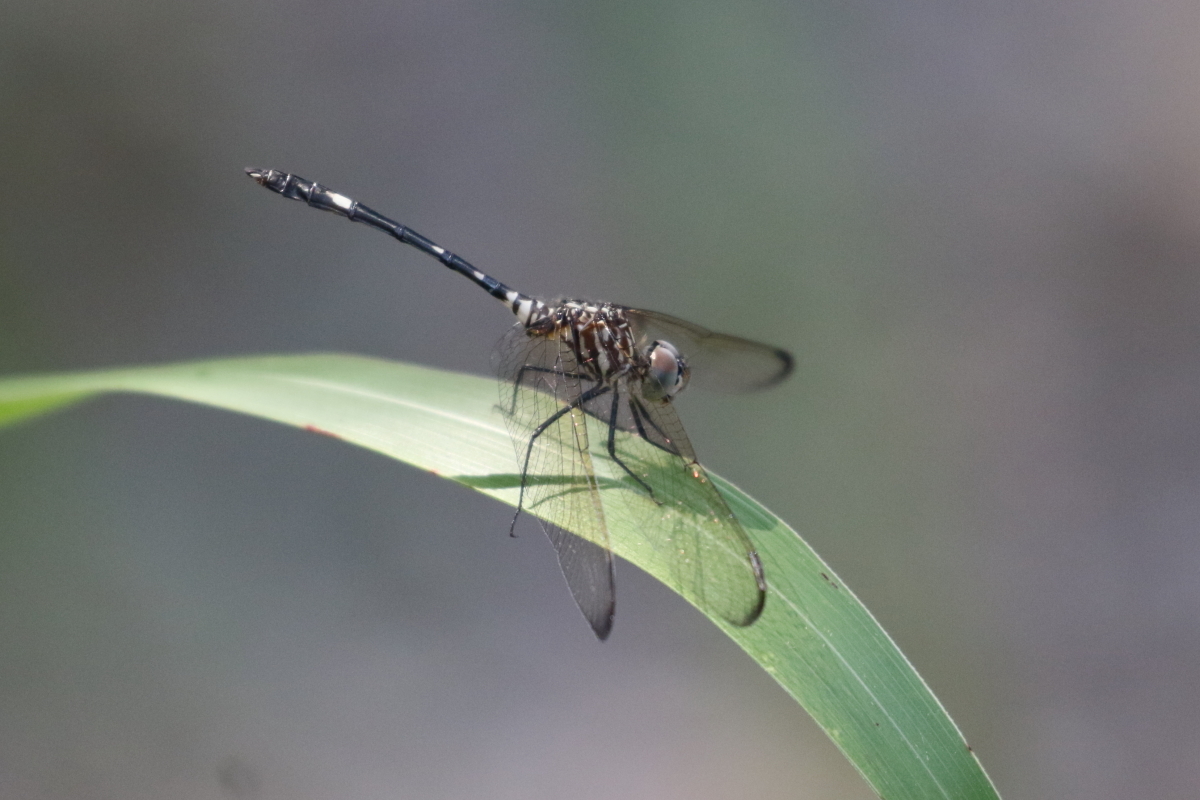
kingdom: Animalia
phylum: Arthropoda
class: Insecta
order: Odonata
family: Libellulidae
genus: Dythemis
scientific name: Dythemis velox
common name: Swift setwing
